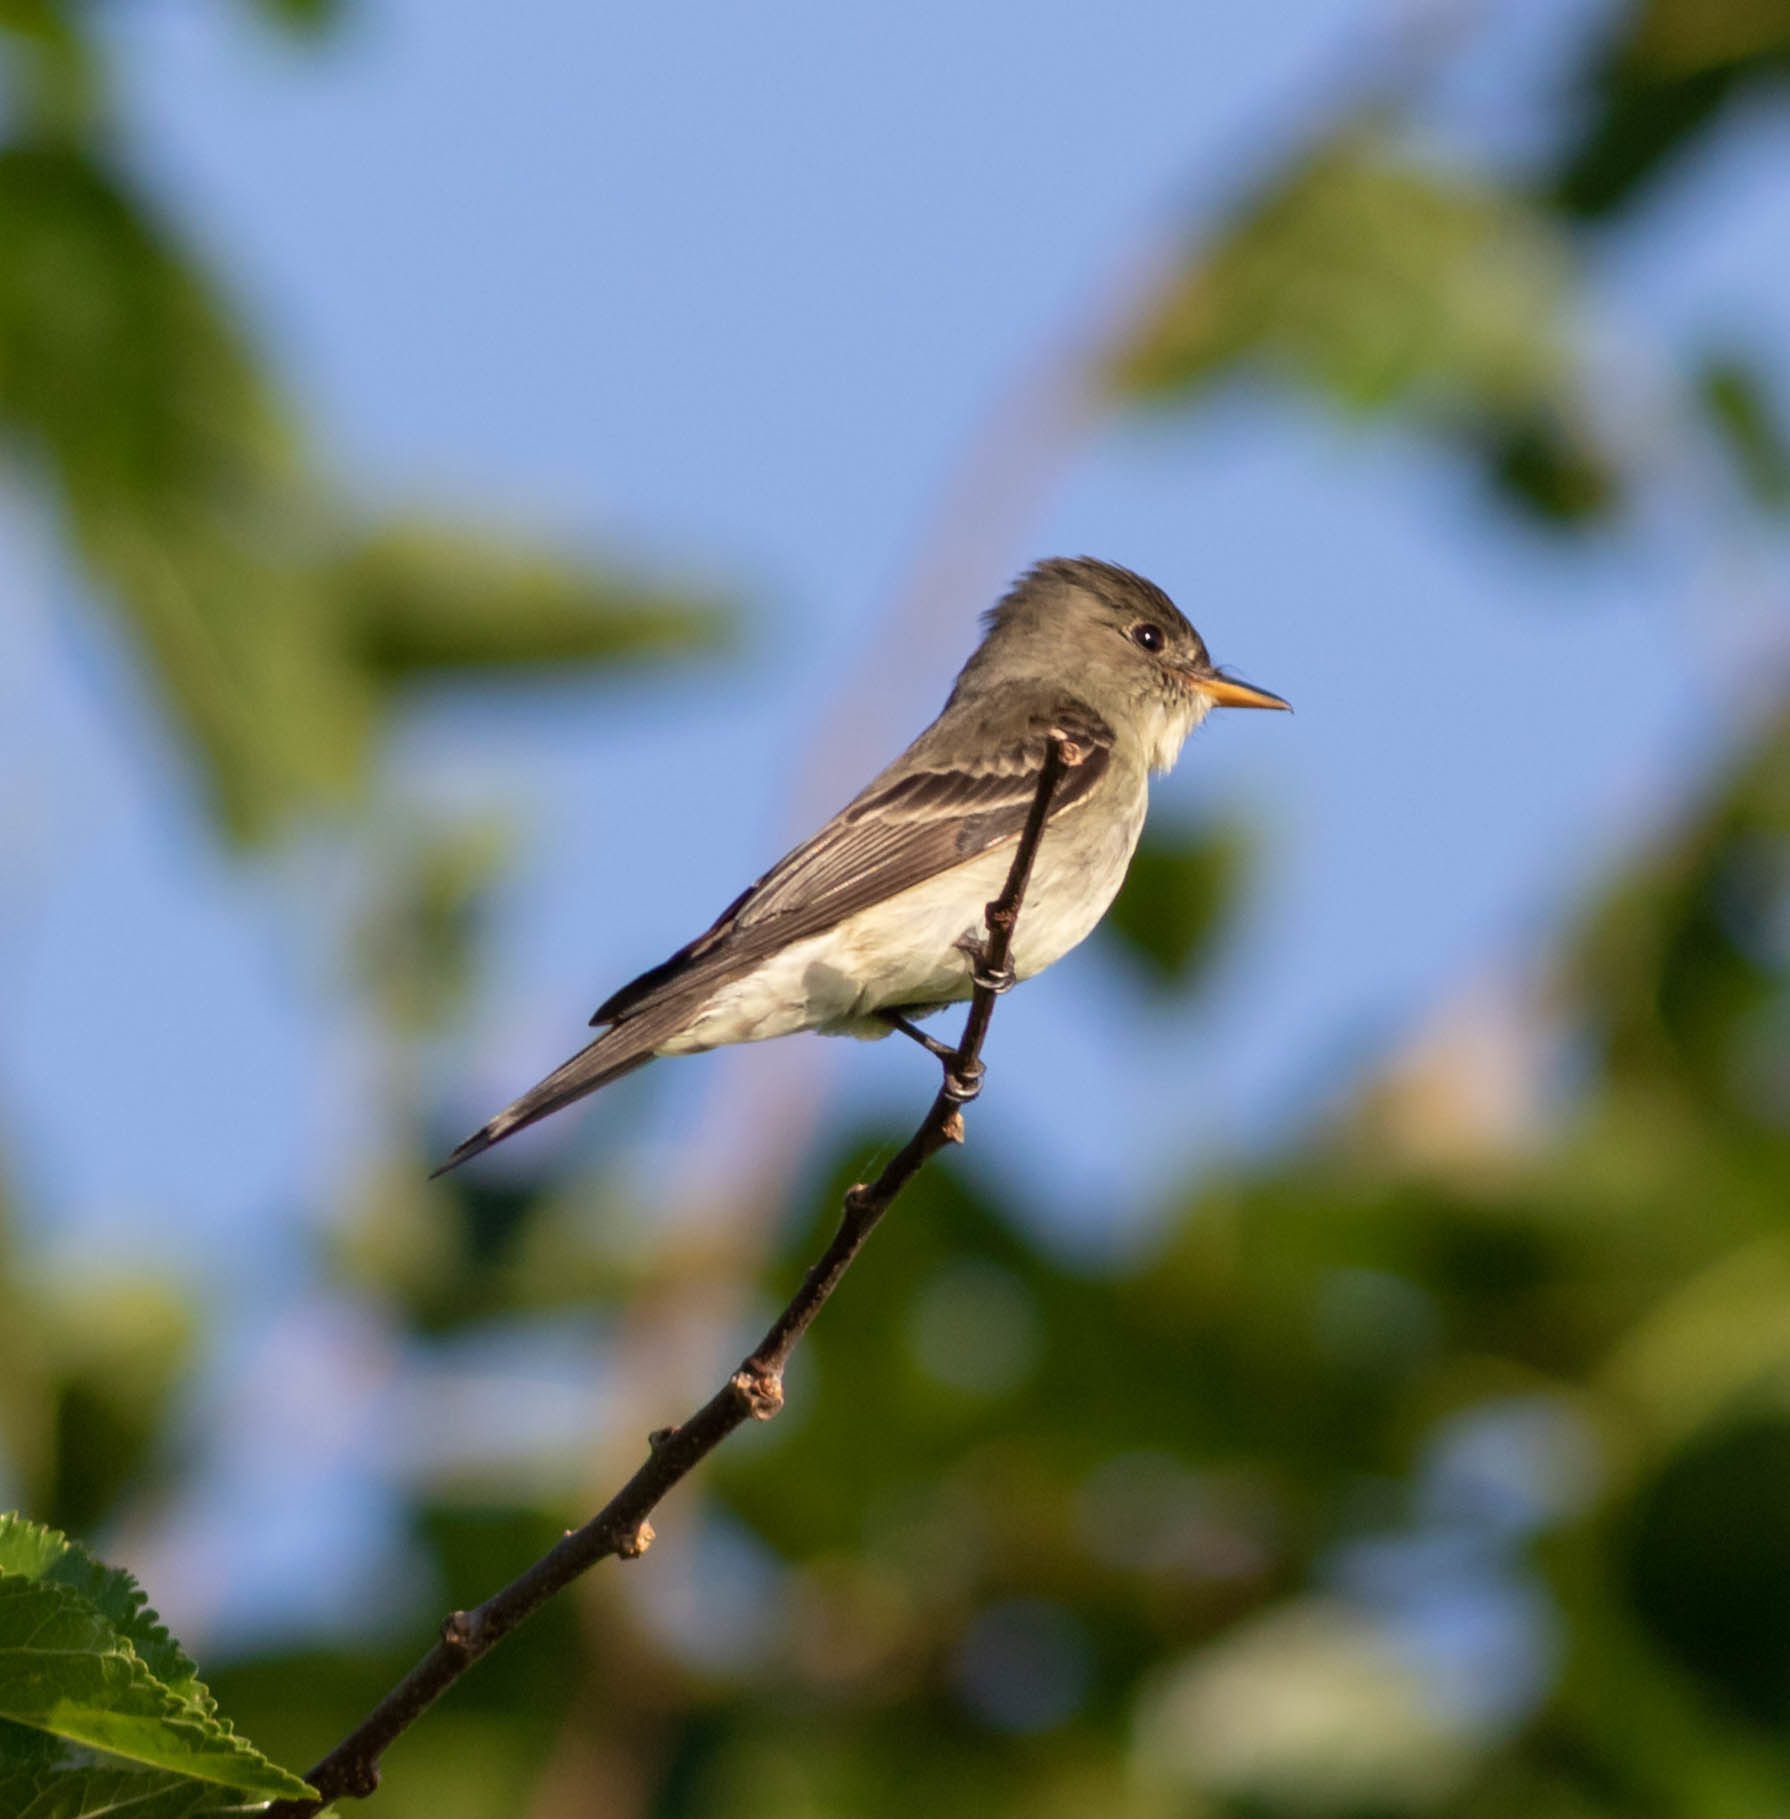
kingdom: Animalia
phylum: Chordata
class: Aves
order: Passeriformes
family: Tyrannidae
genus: Contopus
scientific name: Contopus virens
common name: Eastern wood-pewee
